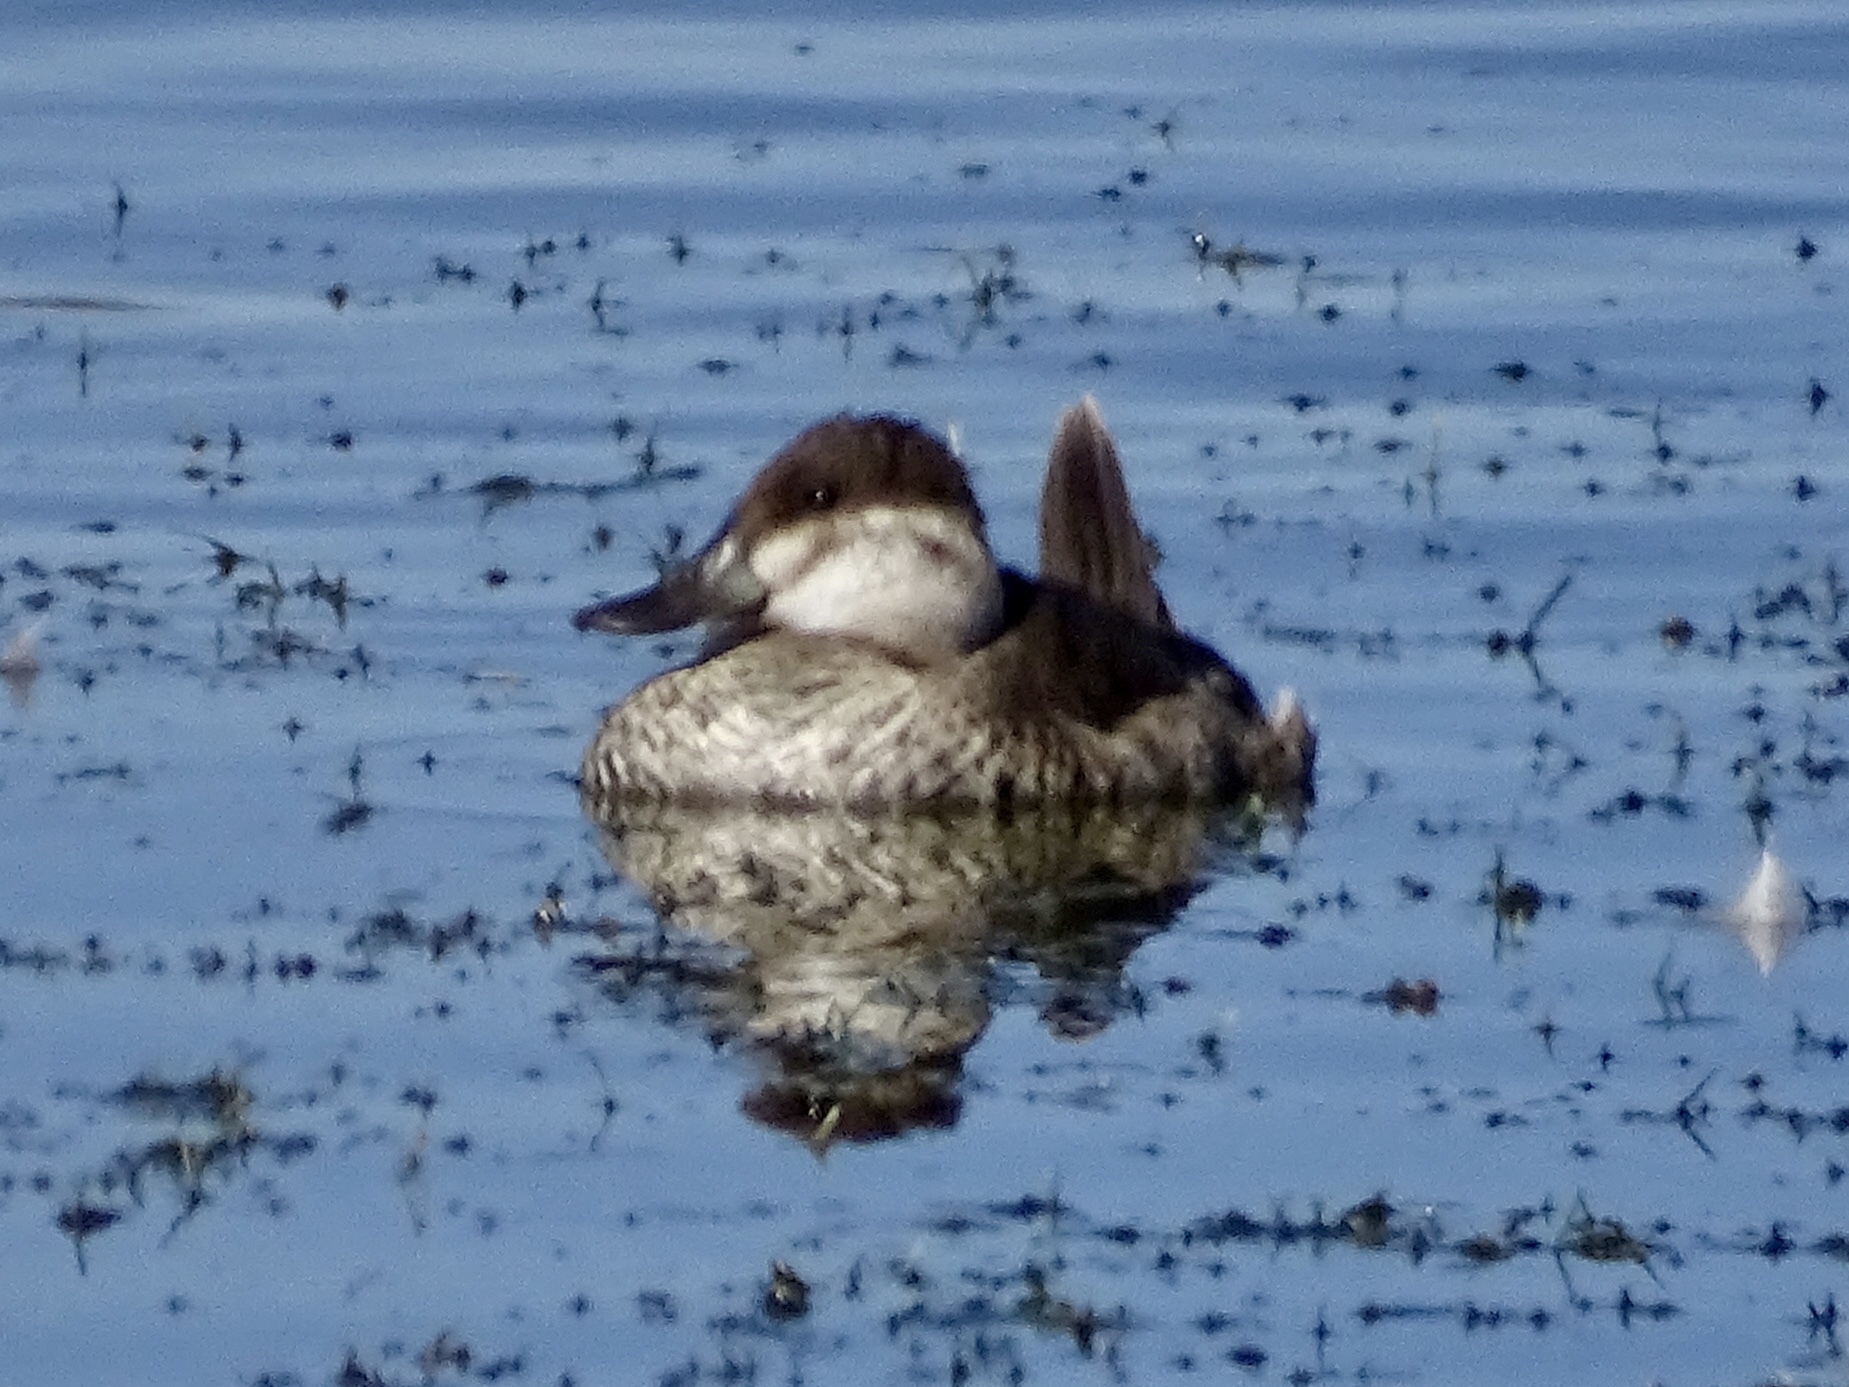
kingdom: Animalia
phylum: Chordata
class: Aves
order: Anseriformes
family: Anatidae
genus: Oxyura
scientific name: Oxyura jamaicensis
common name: Ruddy duck
